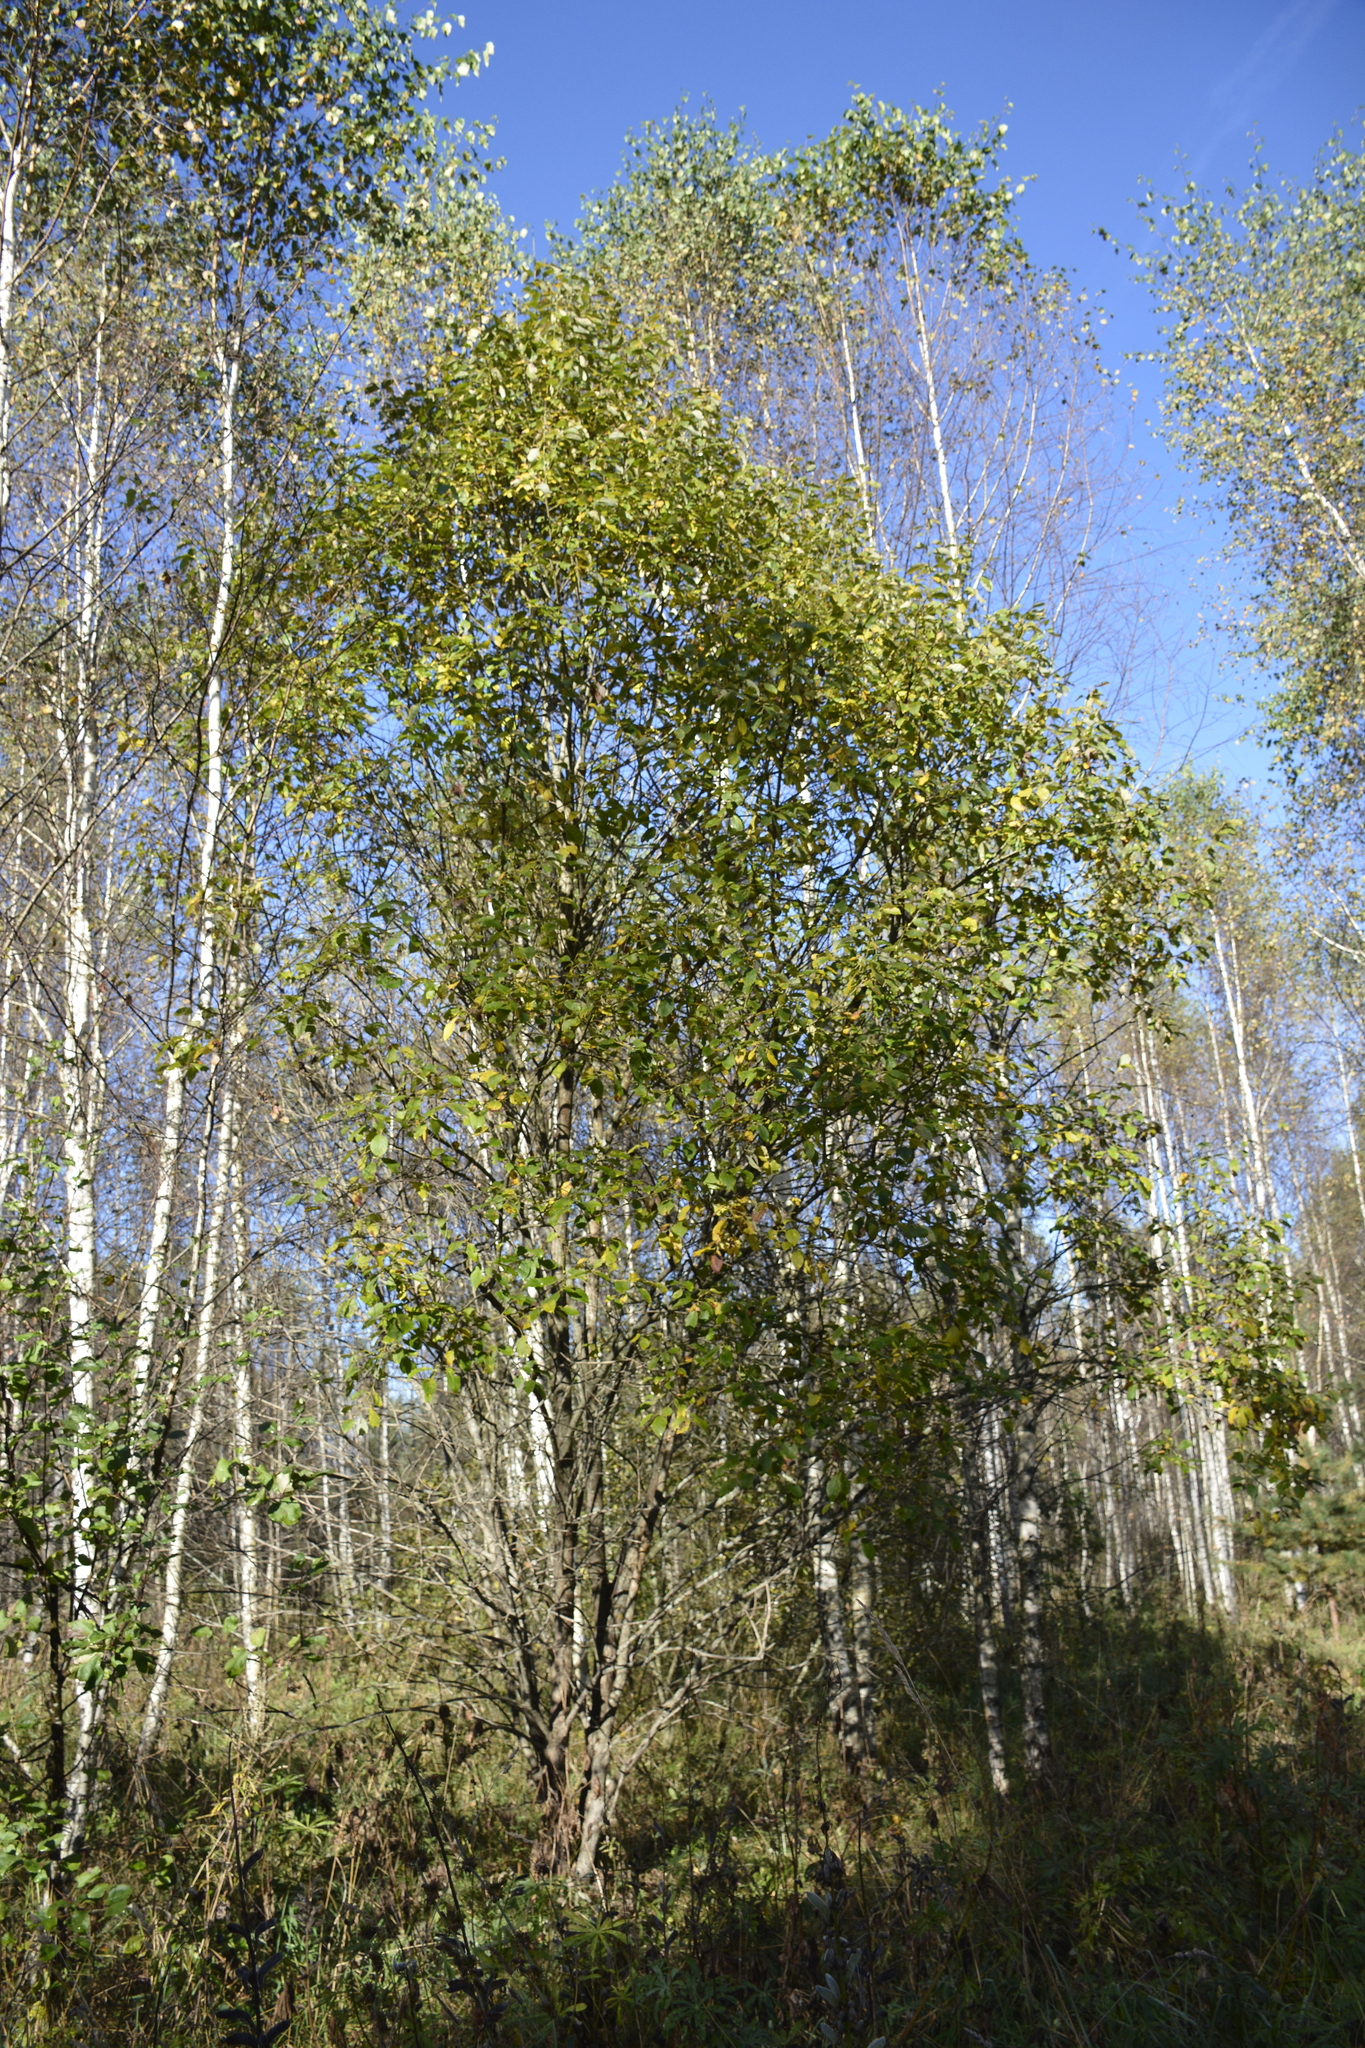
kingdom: Plantae
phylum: Tracheophyta
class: Magnoliopsida
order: Malpighiales
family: Salicaceae
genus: Salix
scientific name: Salix caprea
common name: Goat willow
